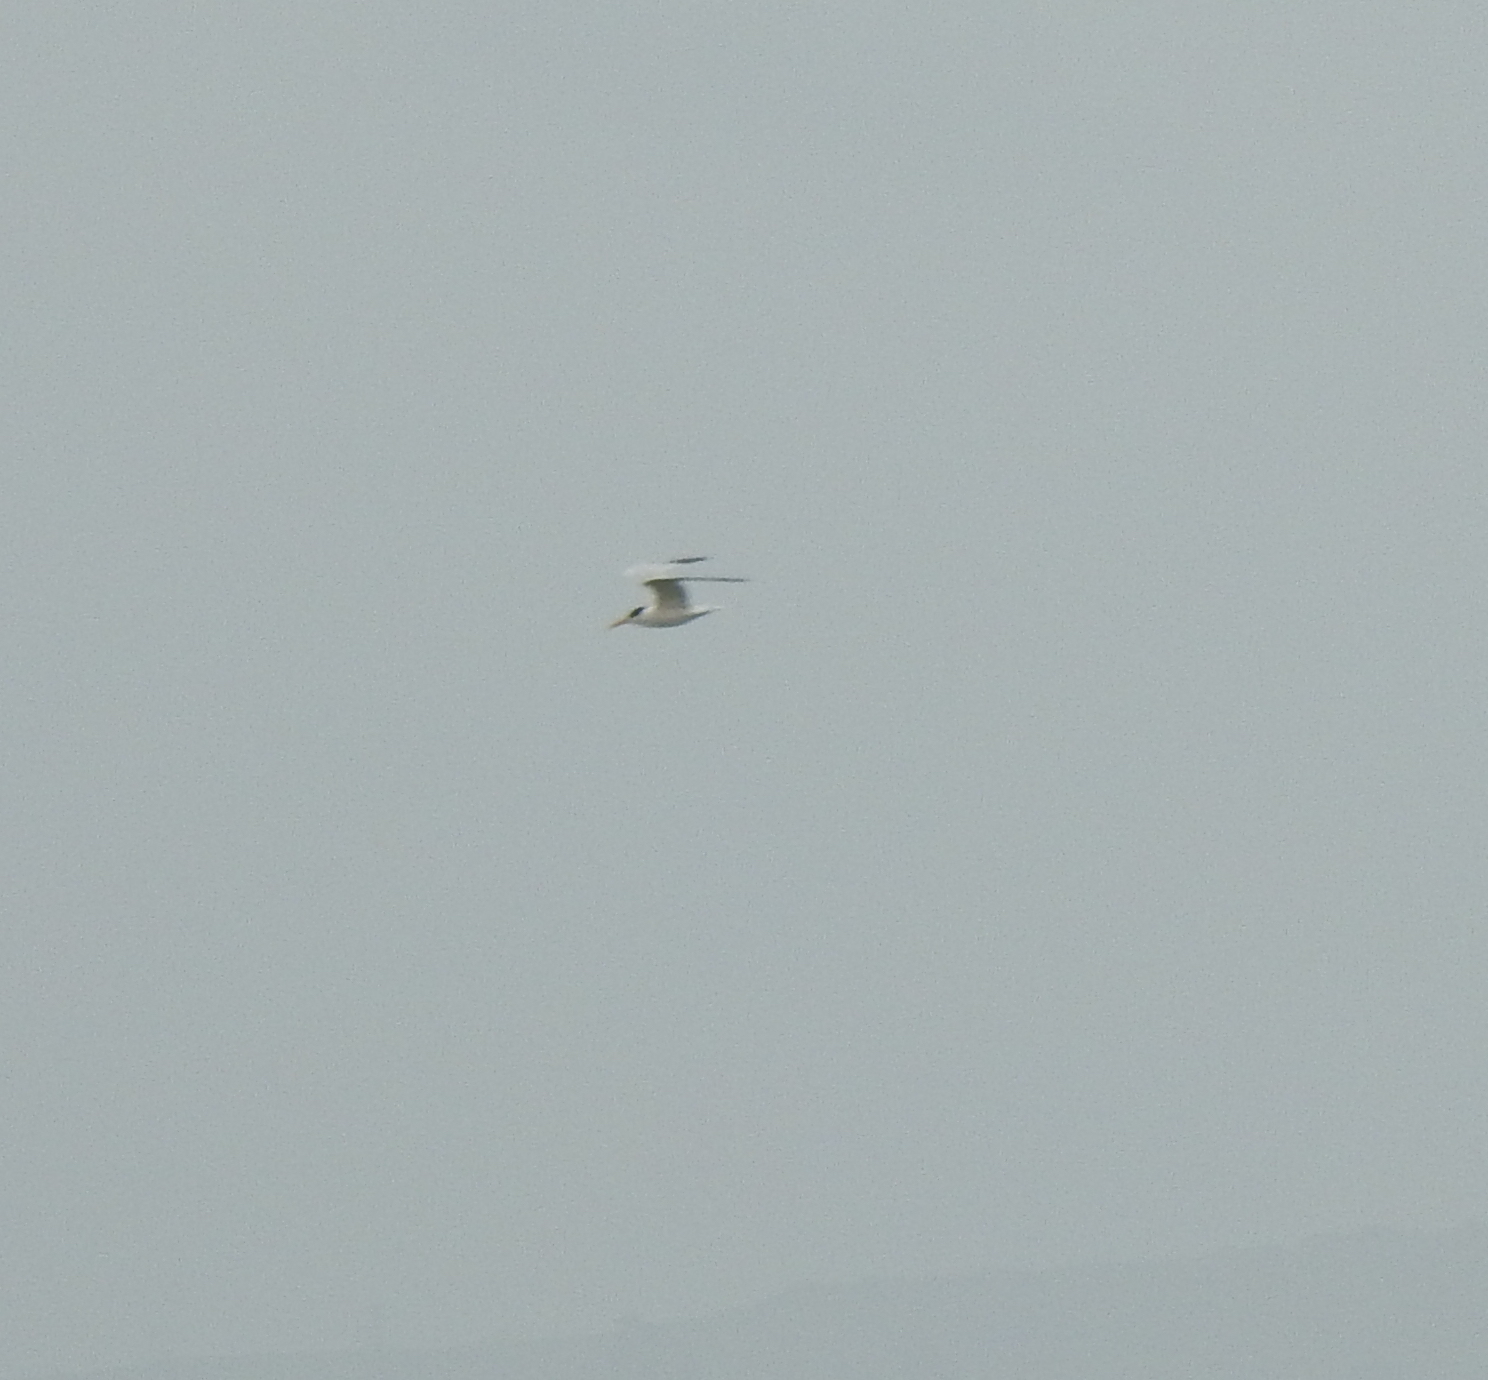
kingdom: Animalia
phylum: Chordata
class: Aves
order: Charadriiformes
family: Laridae
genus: Thalasseus
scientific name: Thalasseus elegans
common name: Elegant tern
